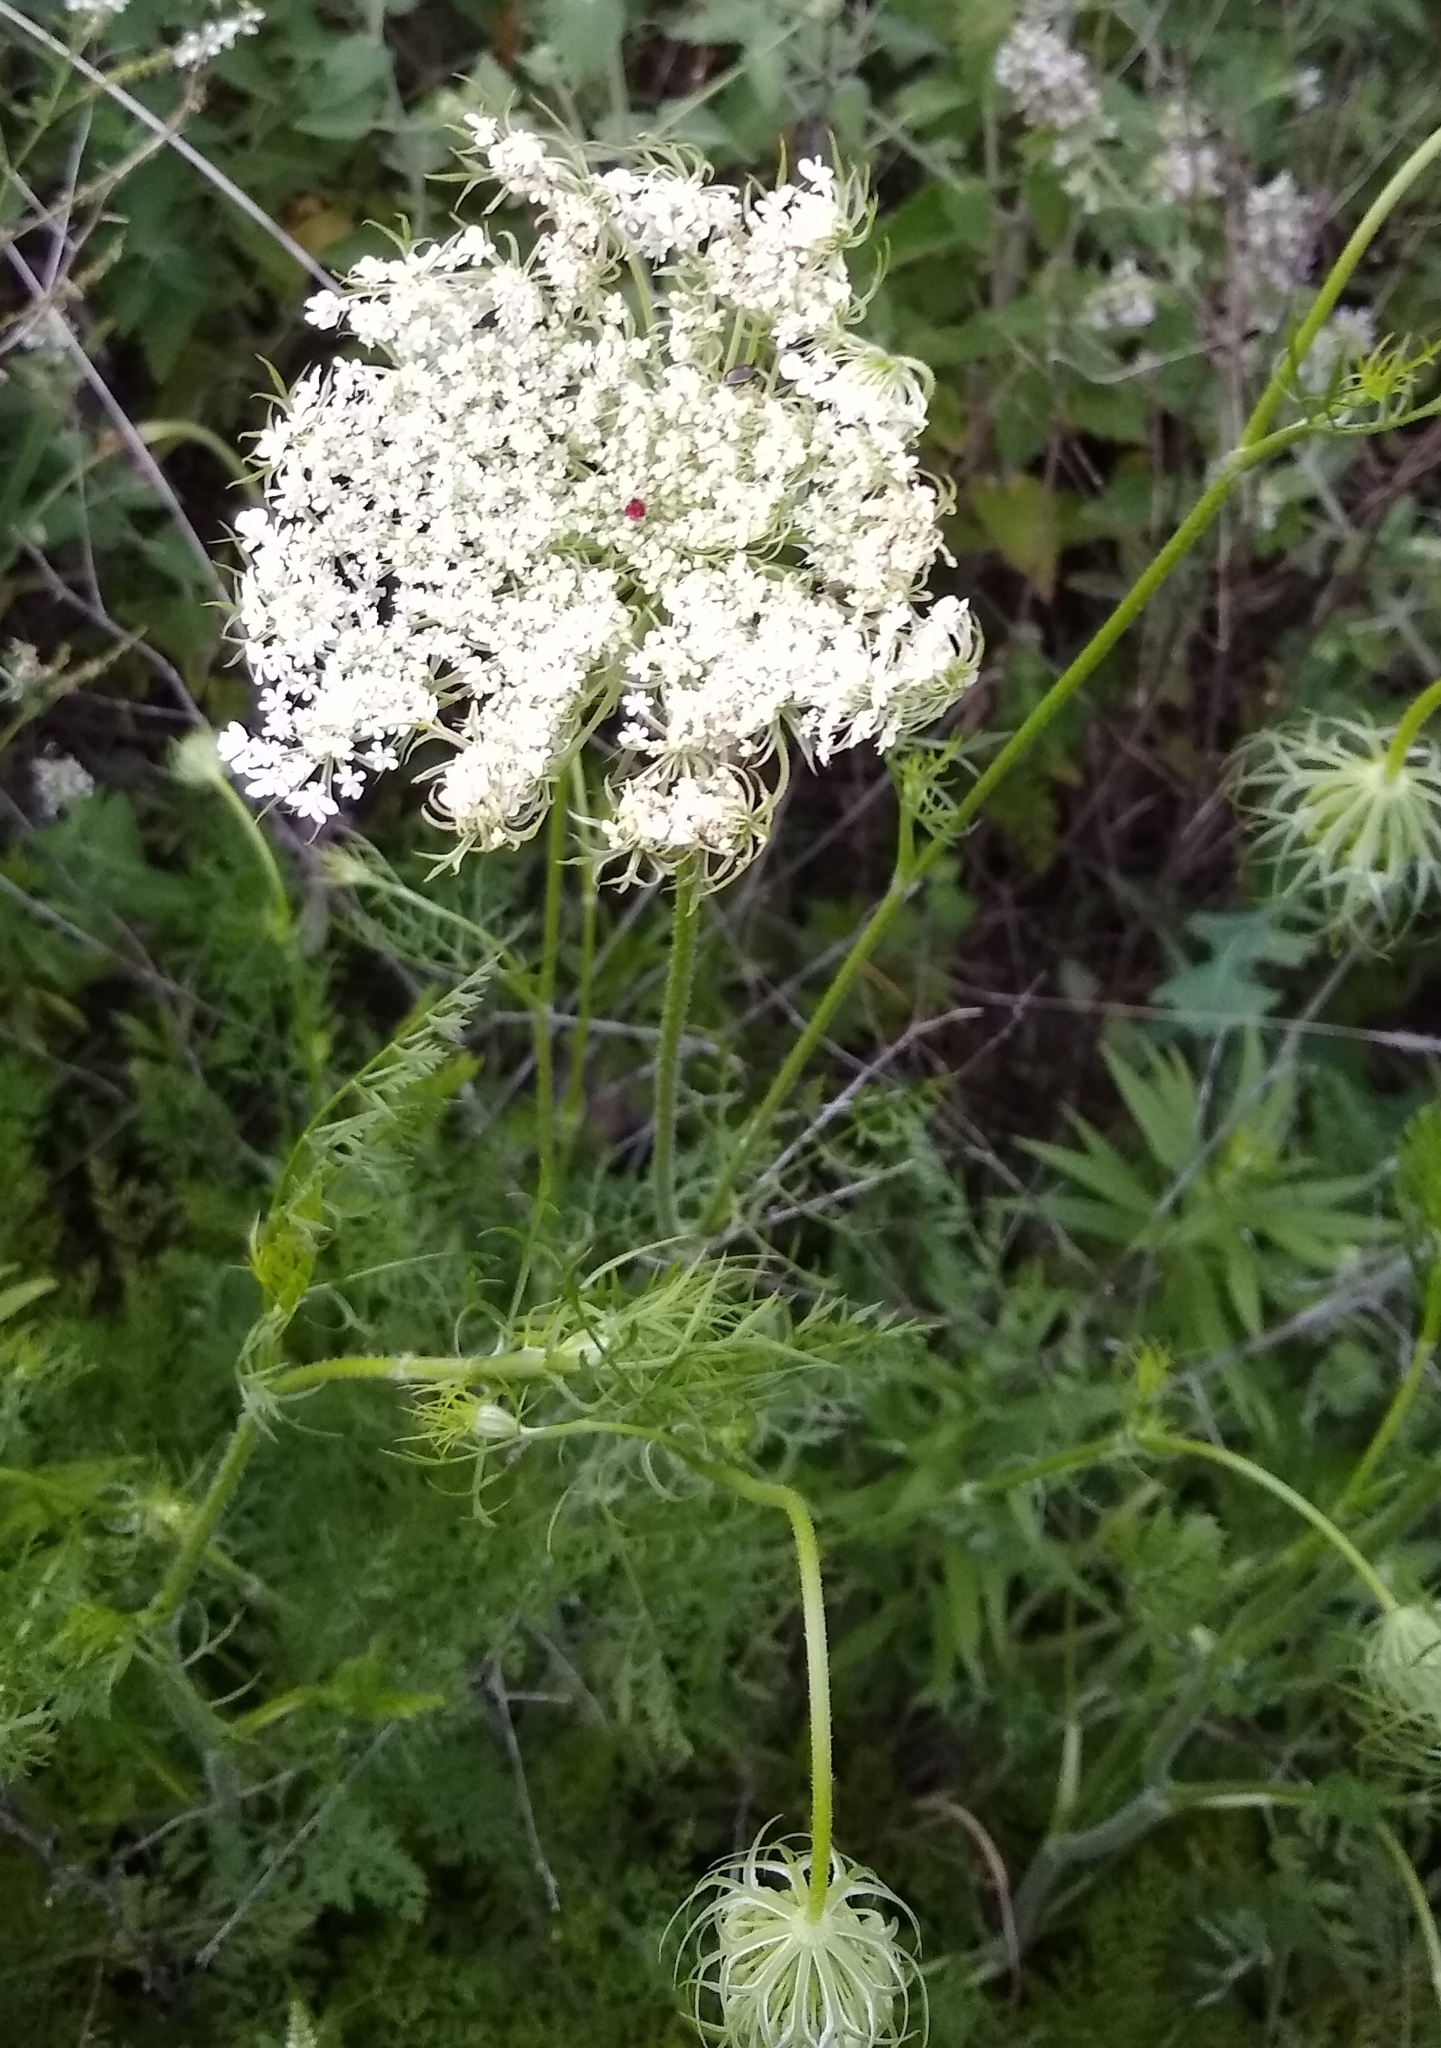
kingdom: Plantae
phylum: Tracheophyta
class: Magnoliopsida
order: Apiales
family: Apiaceae
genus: Daucus
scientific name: Daucus carota
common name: Wild carrot
